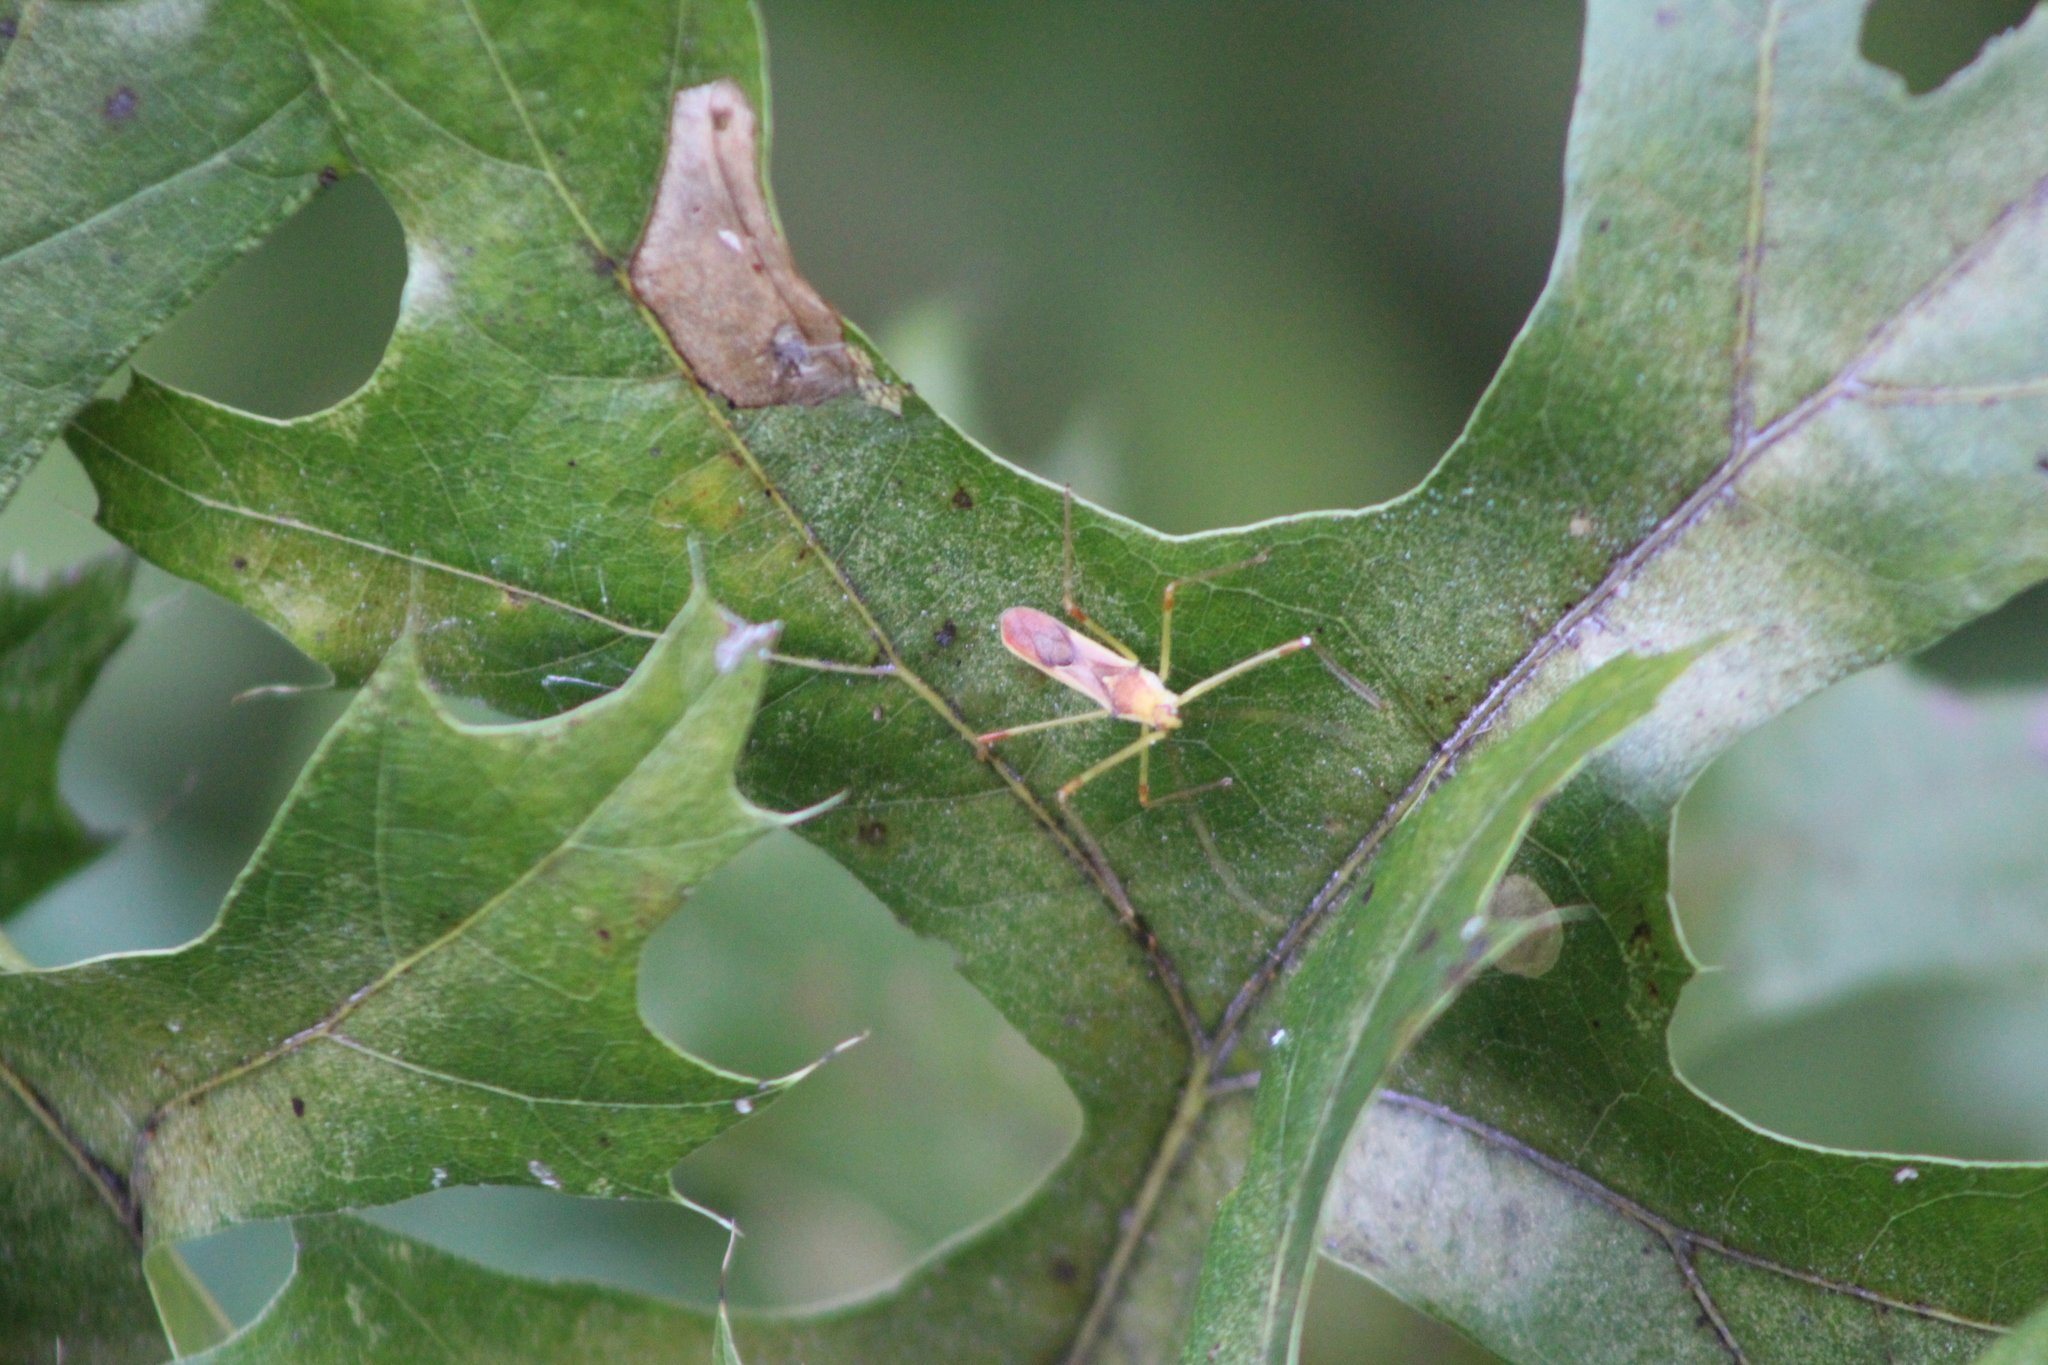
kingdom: Animalia
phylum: Arthropoda
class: Insecta
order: Hemiptera
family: Reduviidae
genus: Zelus
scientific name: Zelus renardii
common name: Assassin bug
